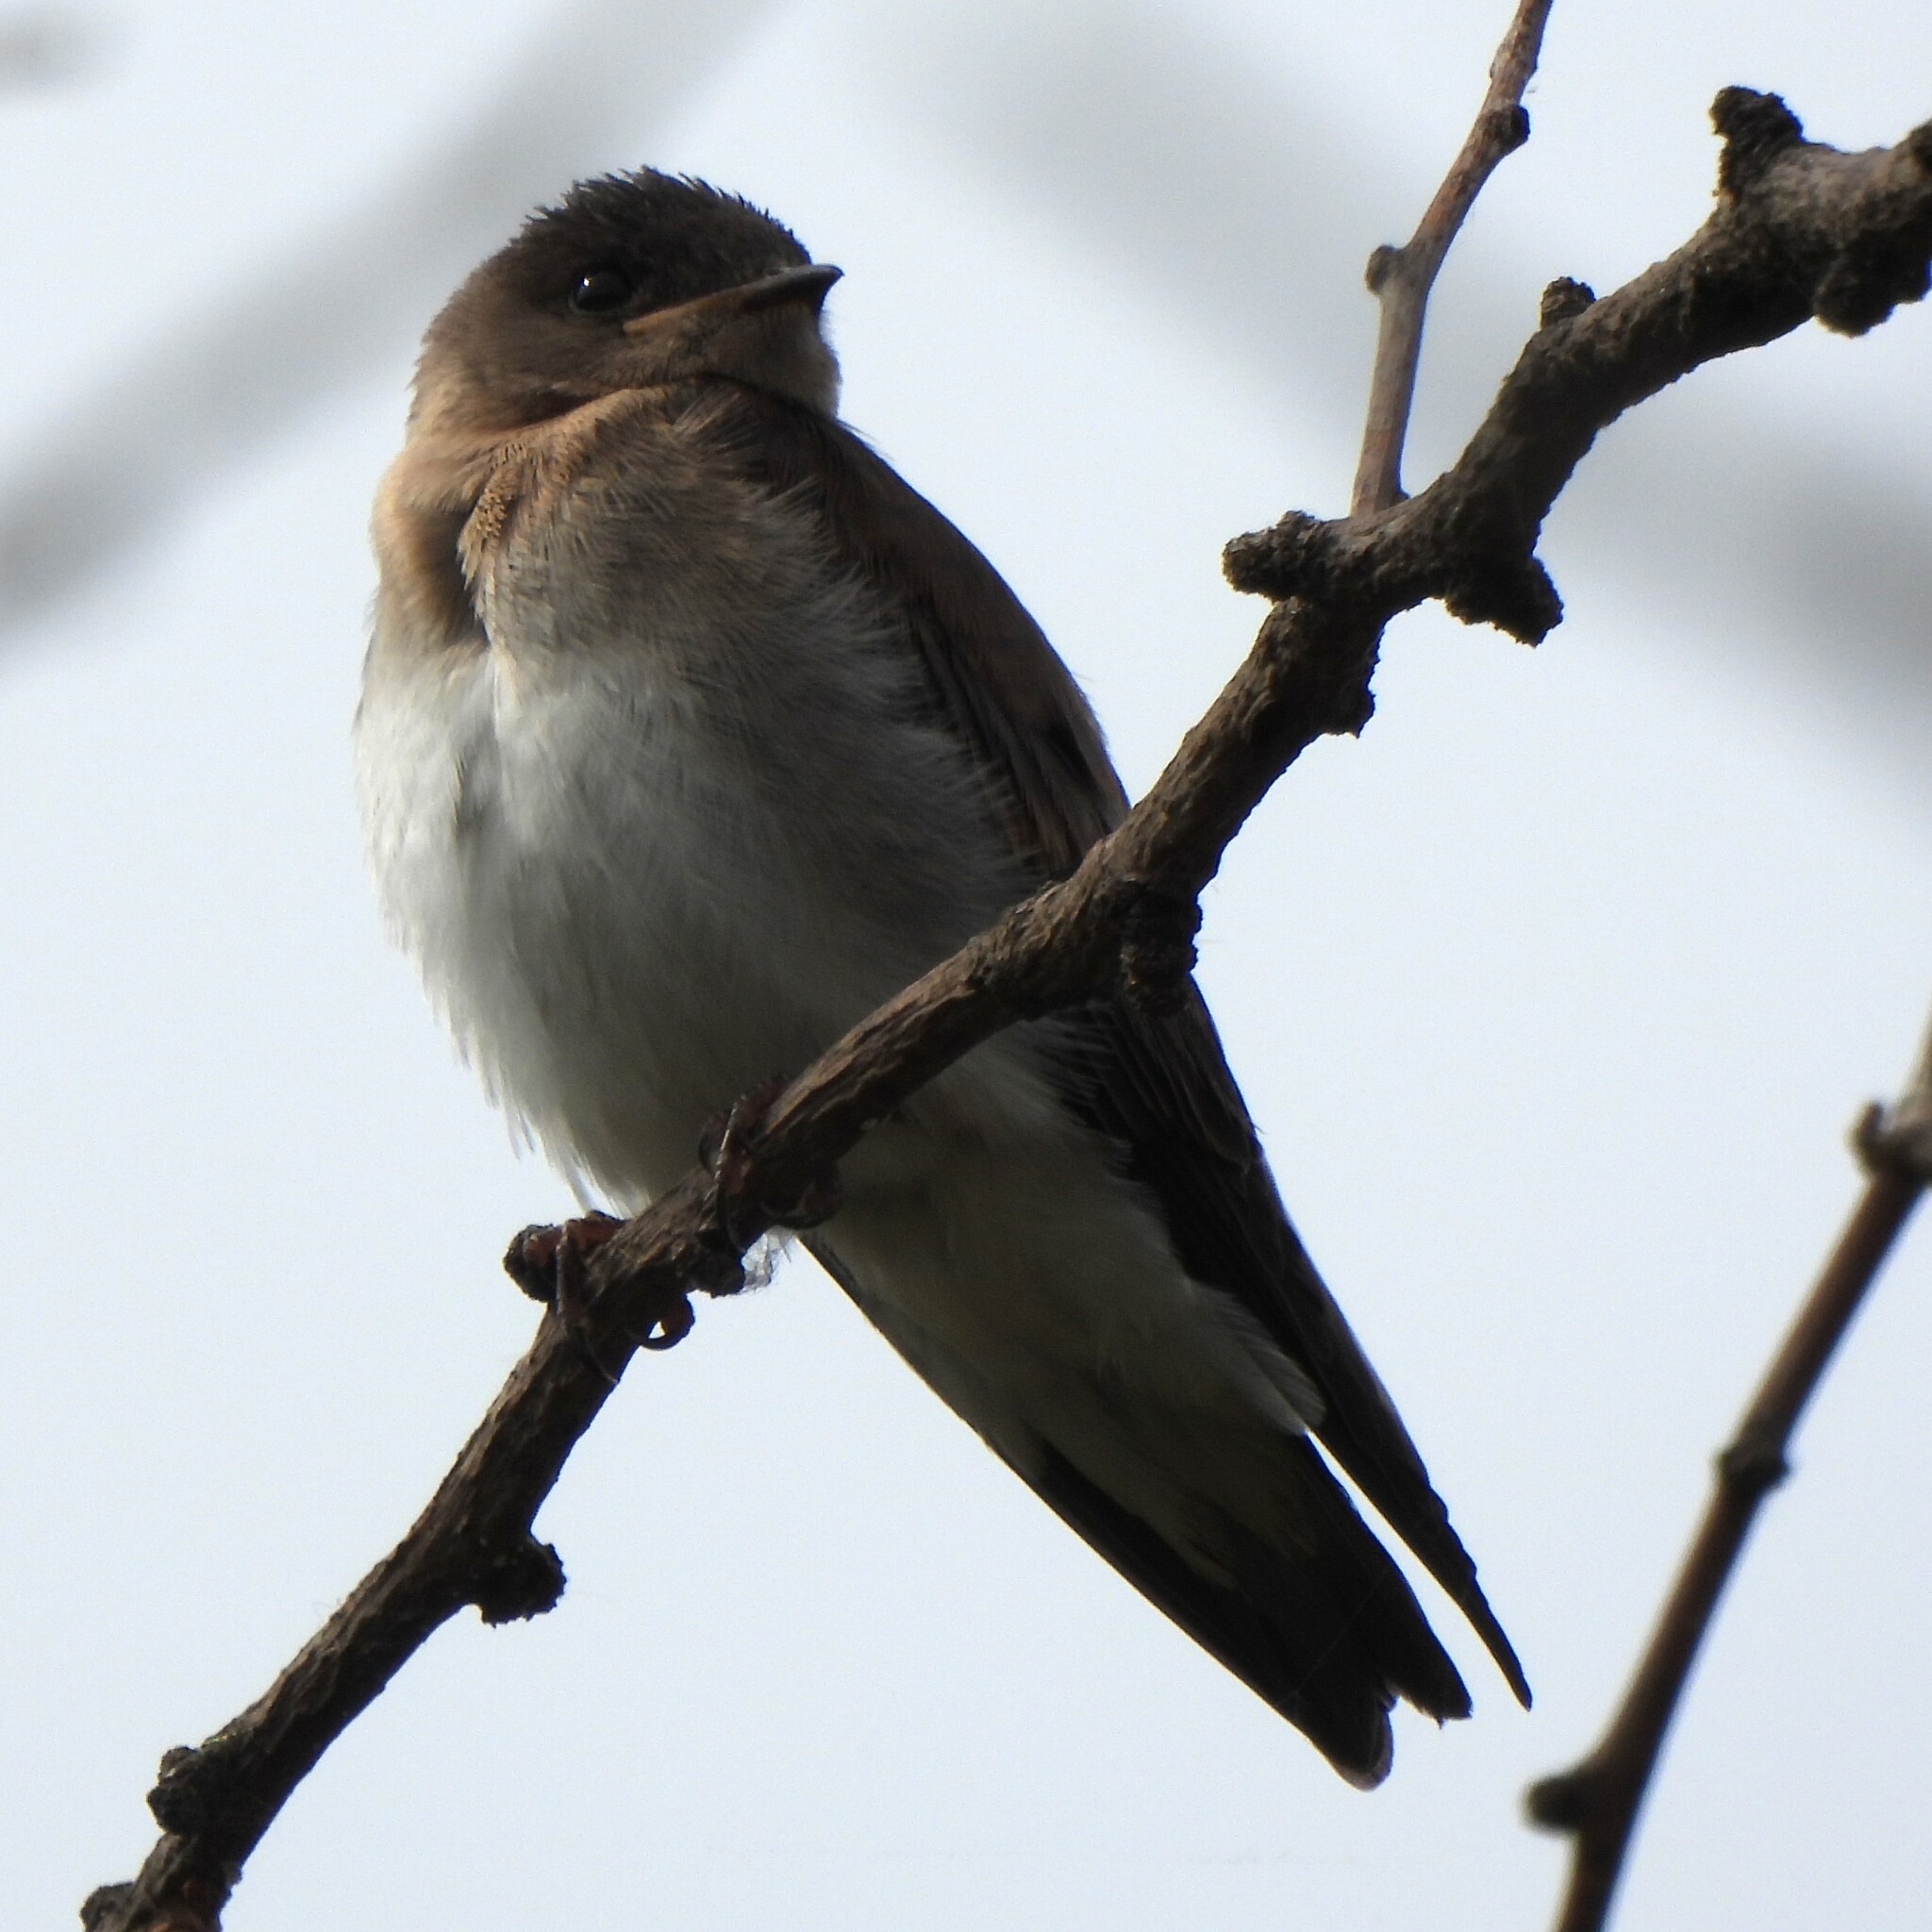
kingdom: Animalia
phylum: Chordata
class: Aves
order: Passeriformes
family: Hirundinidae
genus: Stelgidopteryx
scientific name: Stelgidopteryx serripennis
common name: Northern rough-winged swallow
